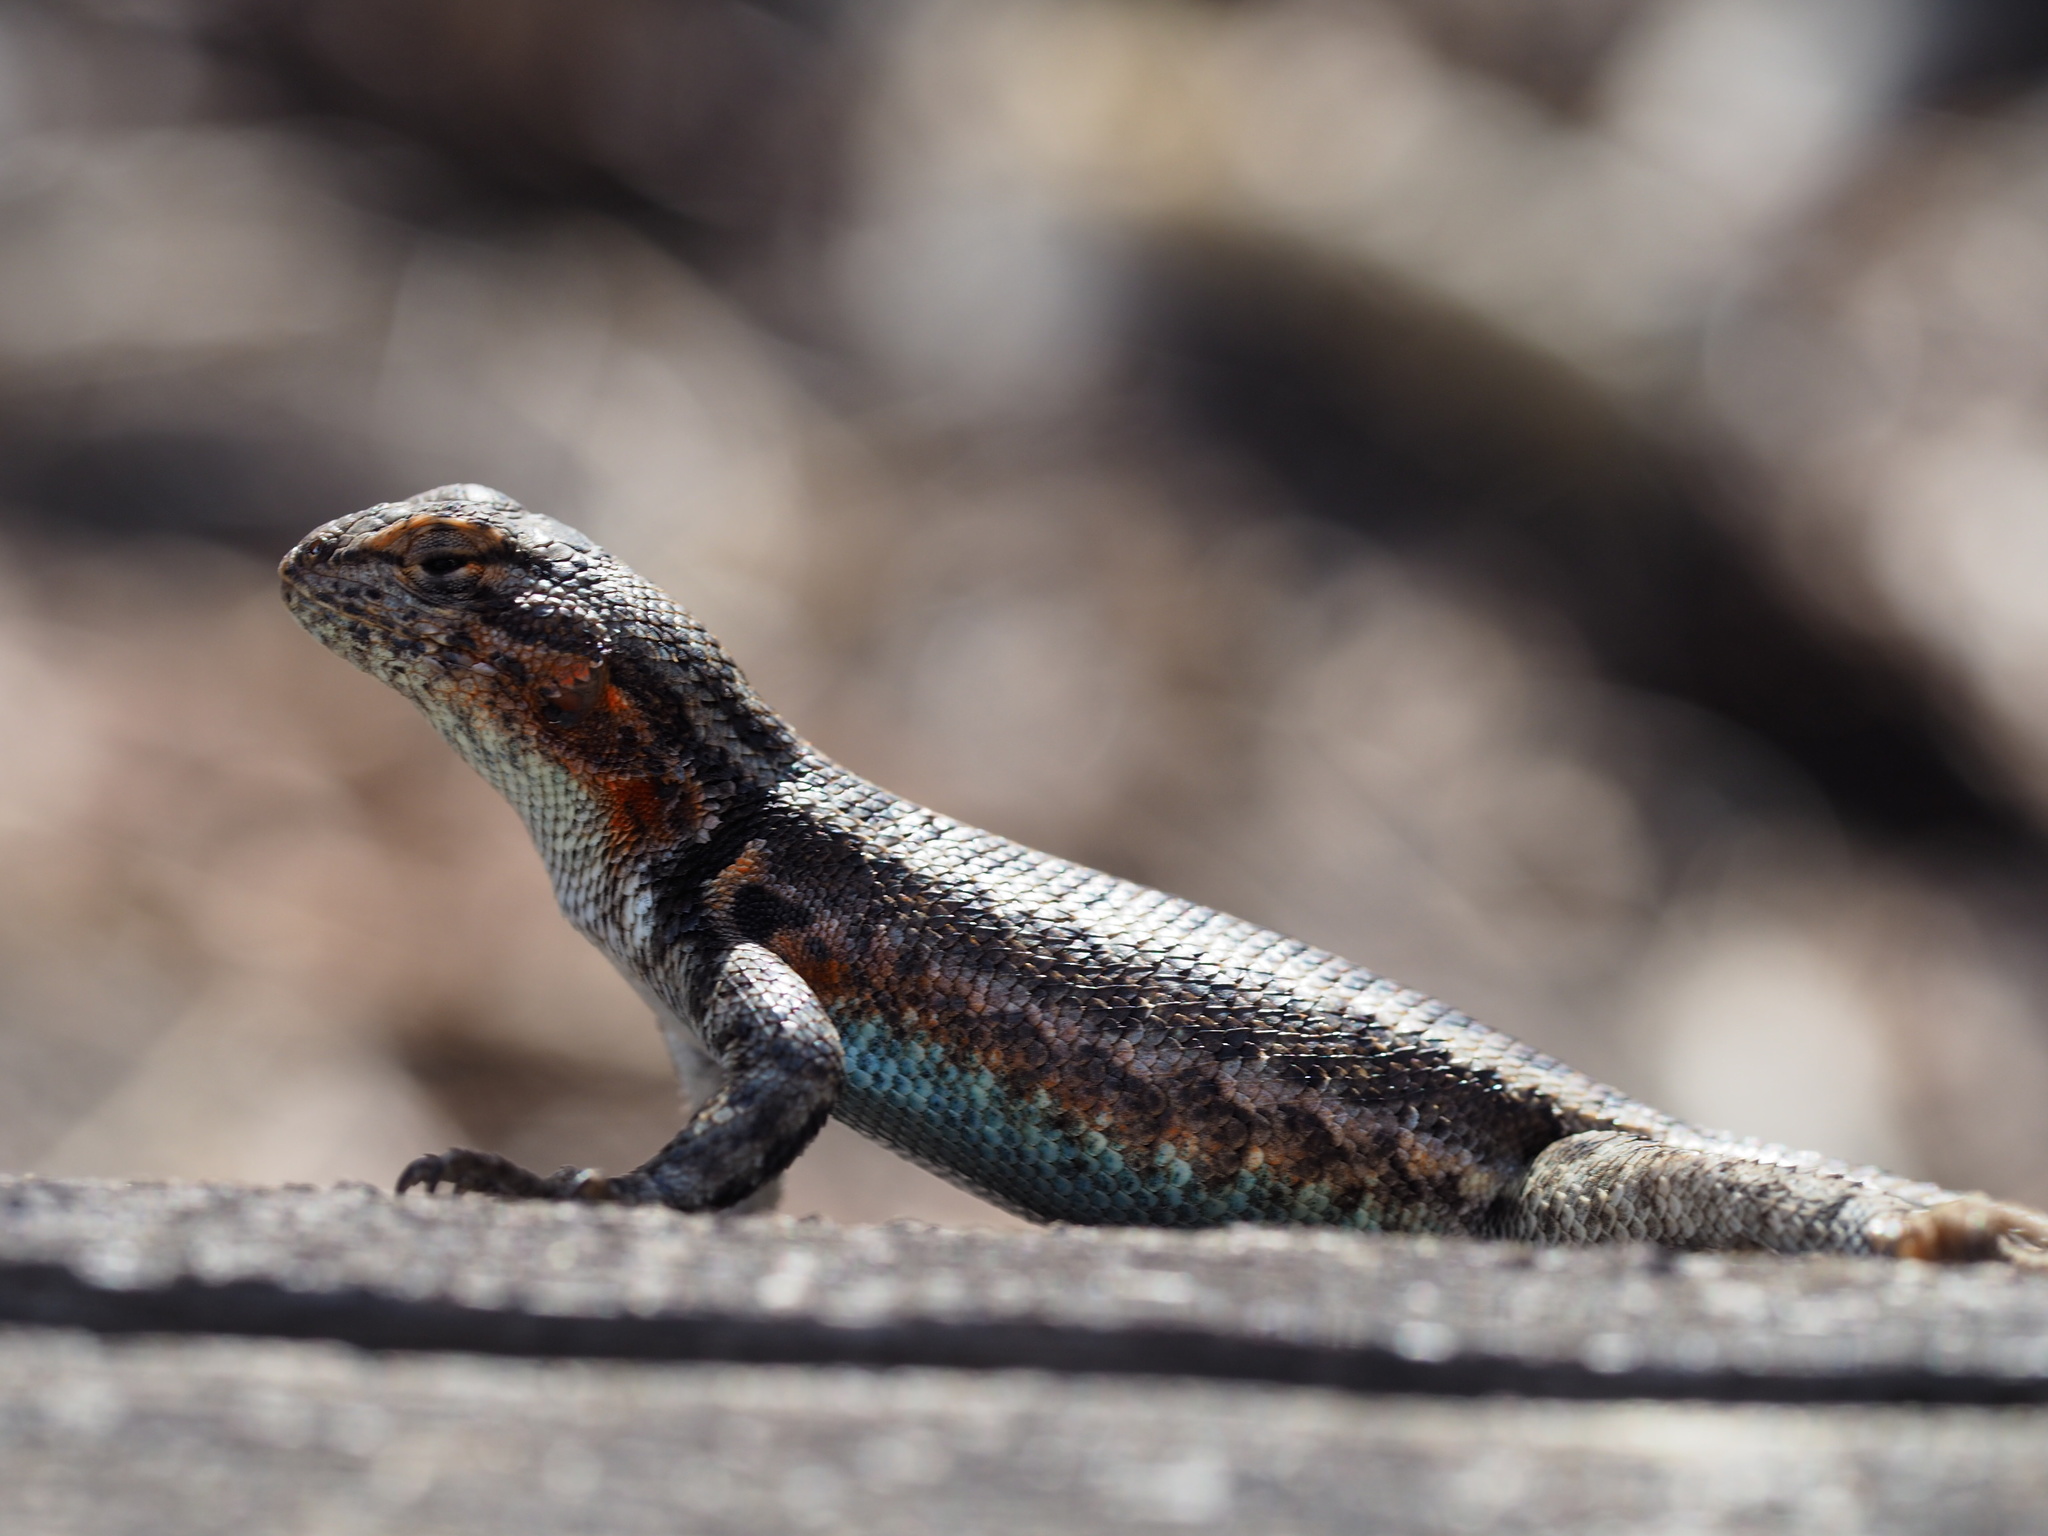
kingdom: Animalia
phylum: Chordata
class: Squamata
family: Phrynosomatidae
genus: Sceloporus
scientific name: Sceloporus graciosus
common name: Sagebrush lizard
